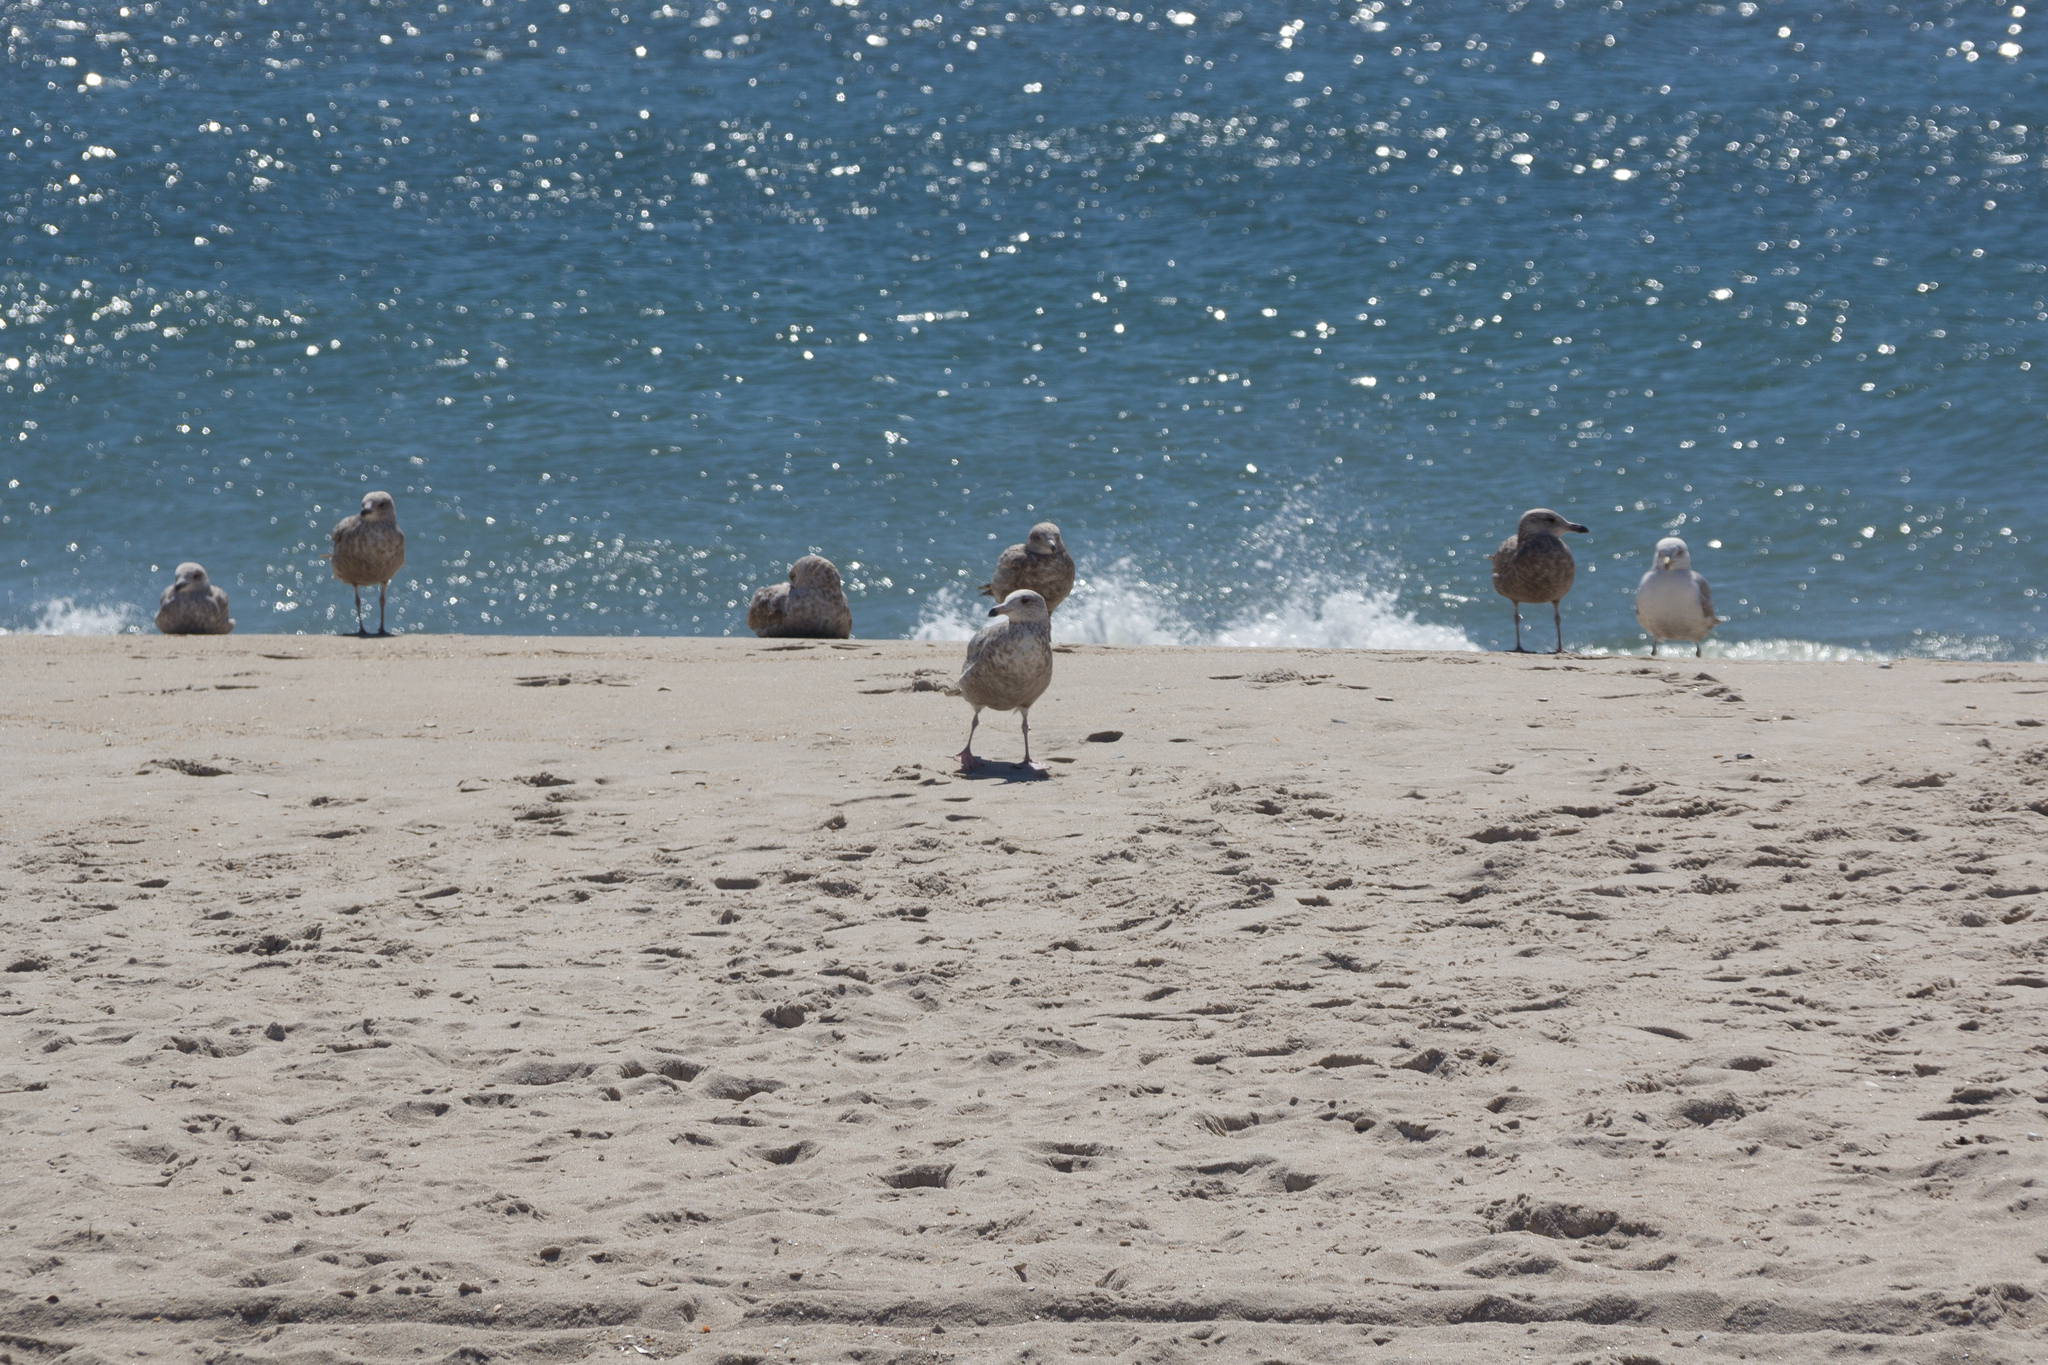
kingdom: Animalia
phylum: Chordata
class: Aves
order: Charadriiformes
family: Laridae
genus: Larus
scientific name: Larus argentatus
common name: Herring gull
